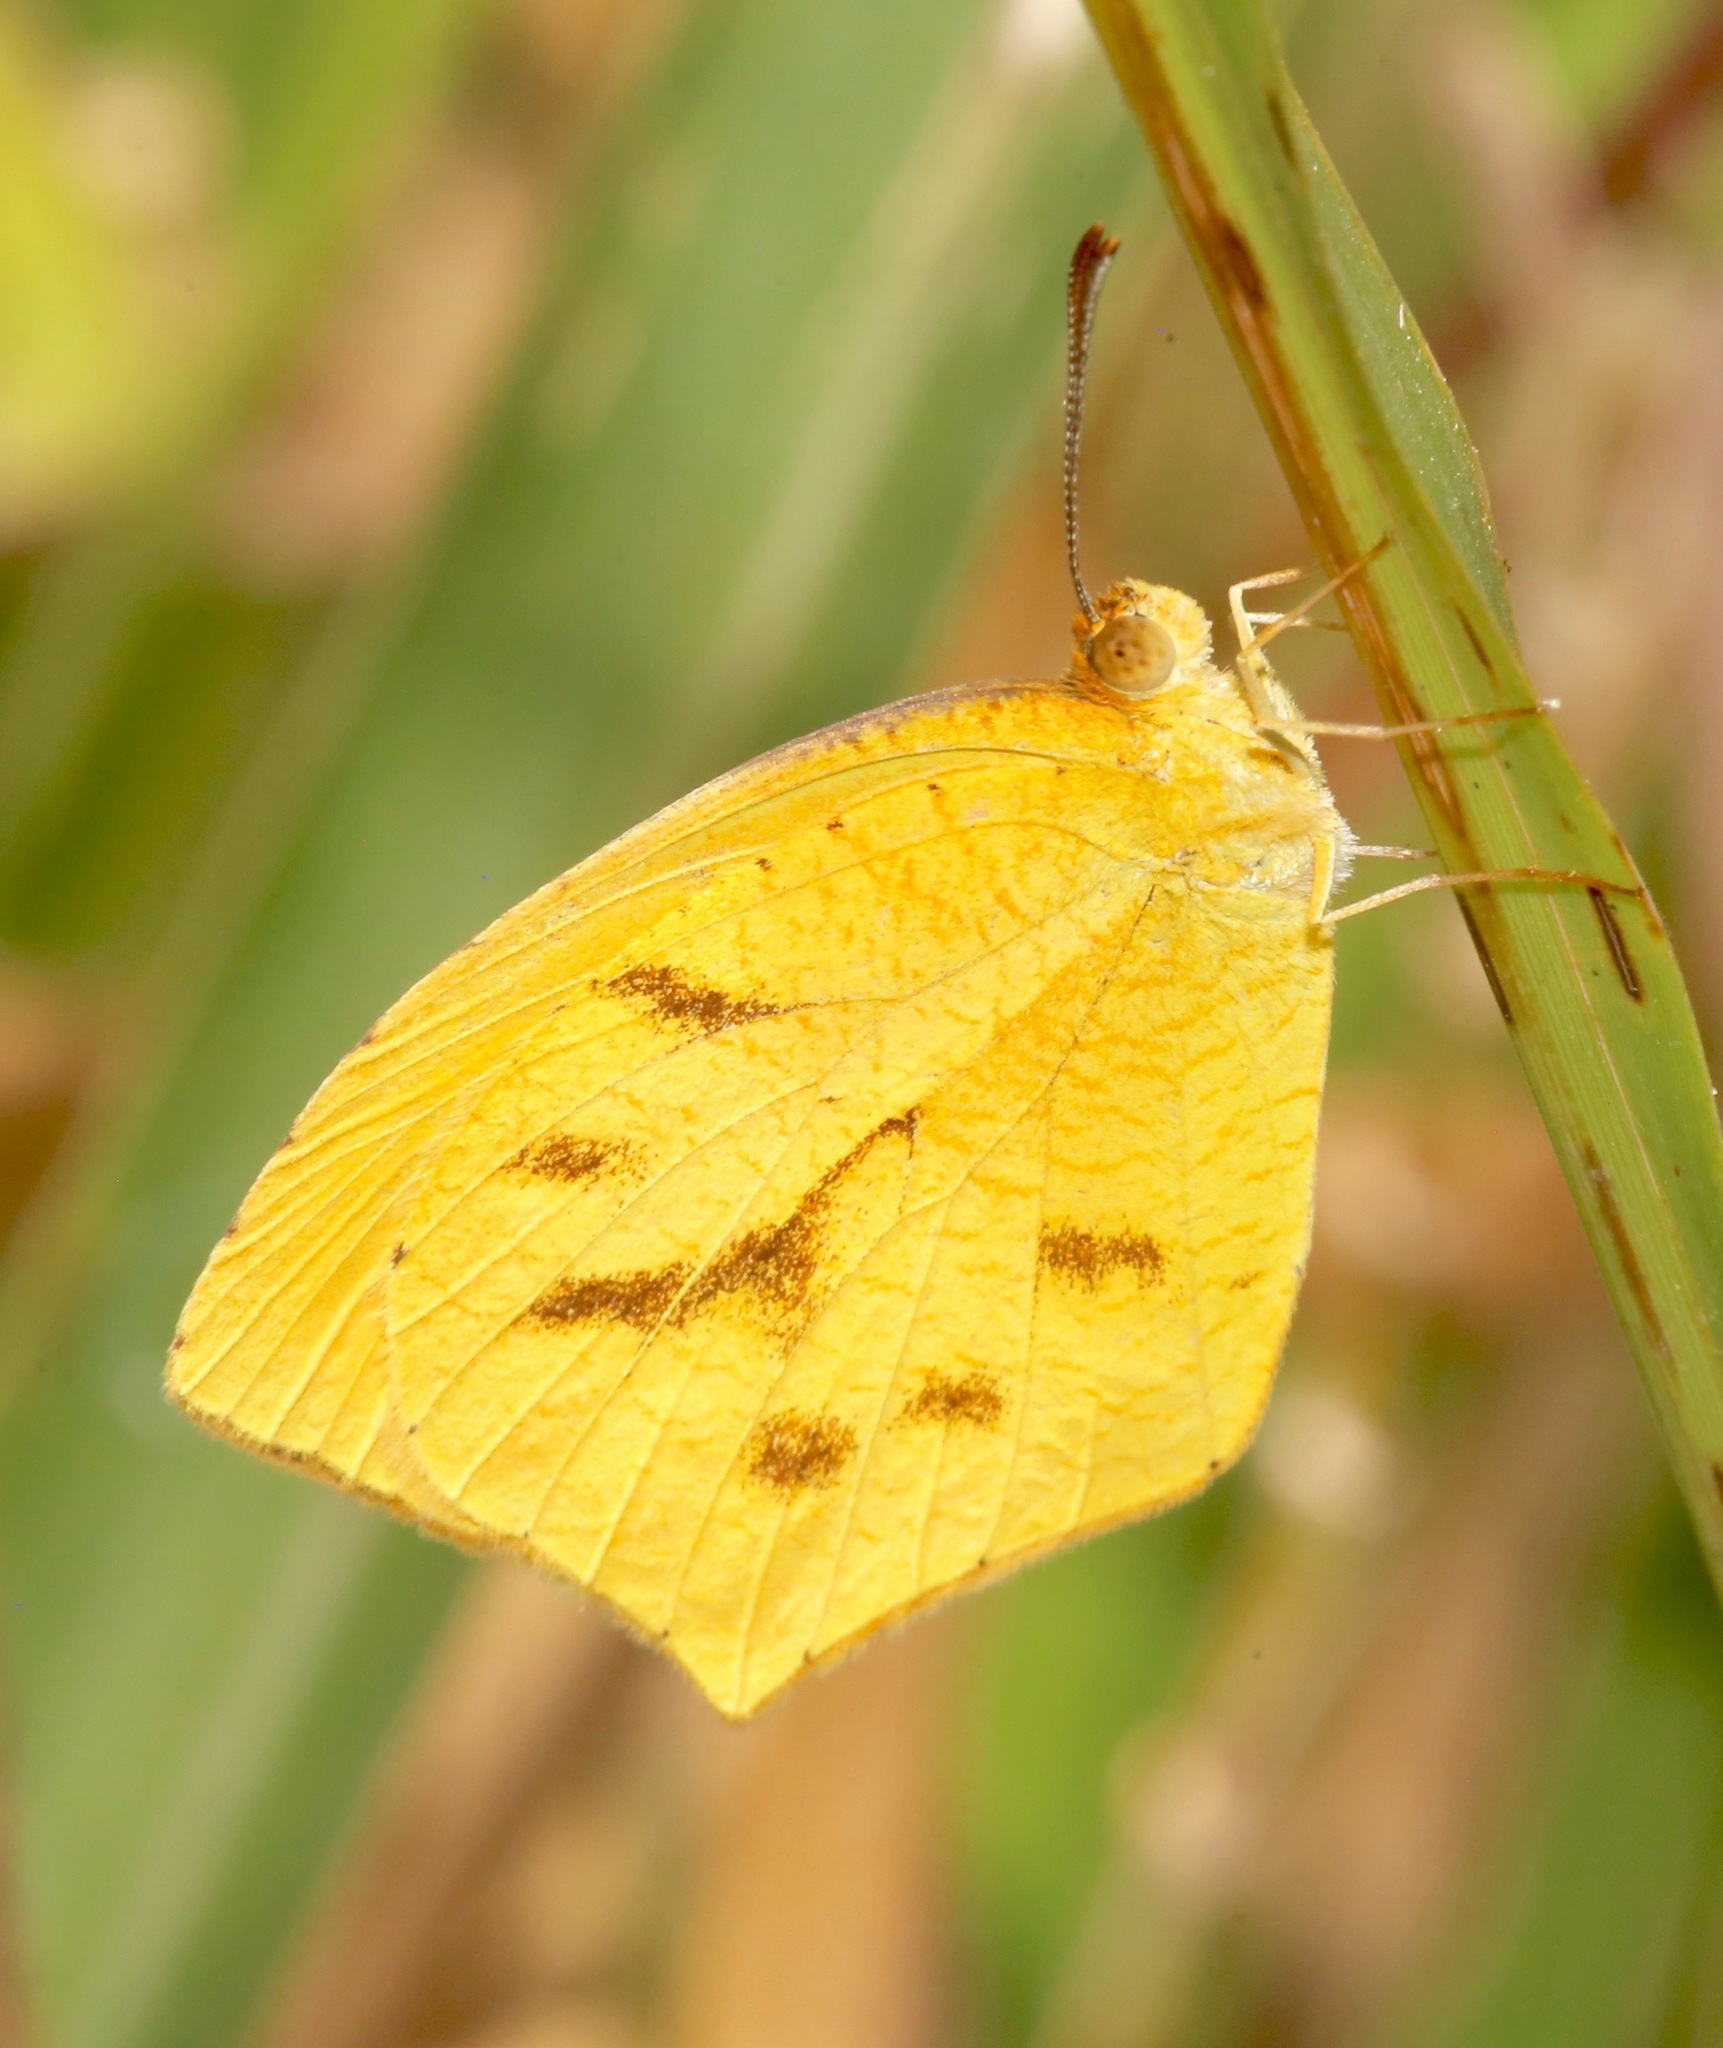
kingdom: Animalia
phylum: Arthropoda
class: Insecta
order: Lepidoptera
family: Pieridae
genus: Pyrisitia
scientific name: Pyrisitia proterpia
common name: Tailed orange
